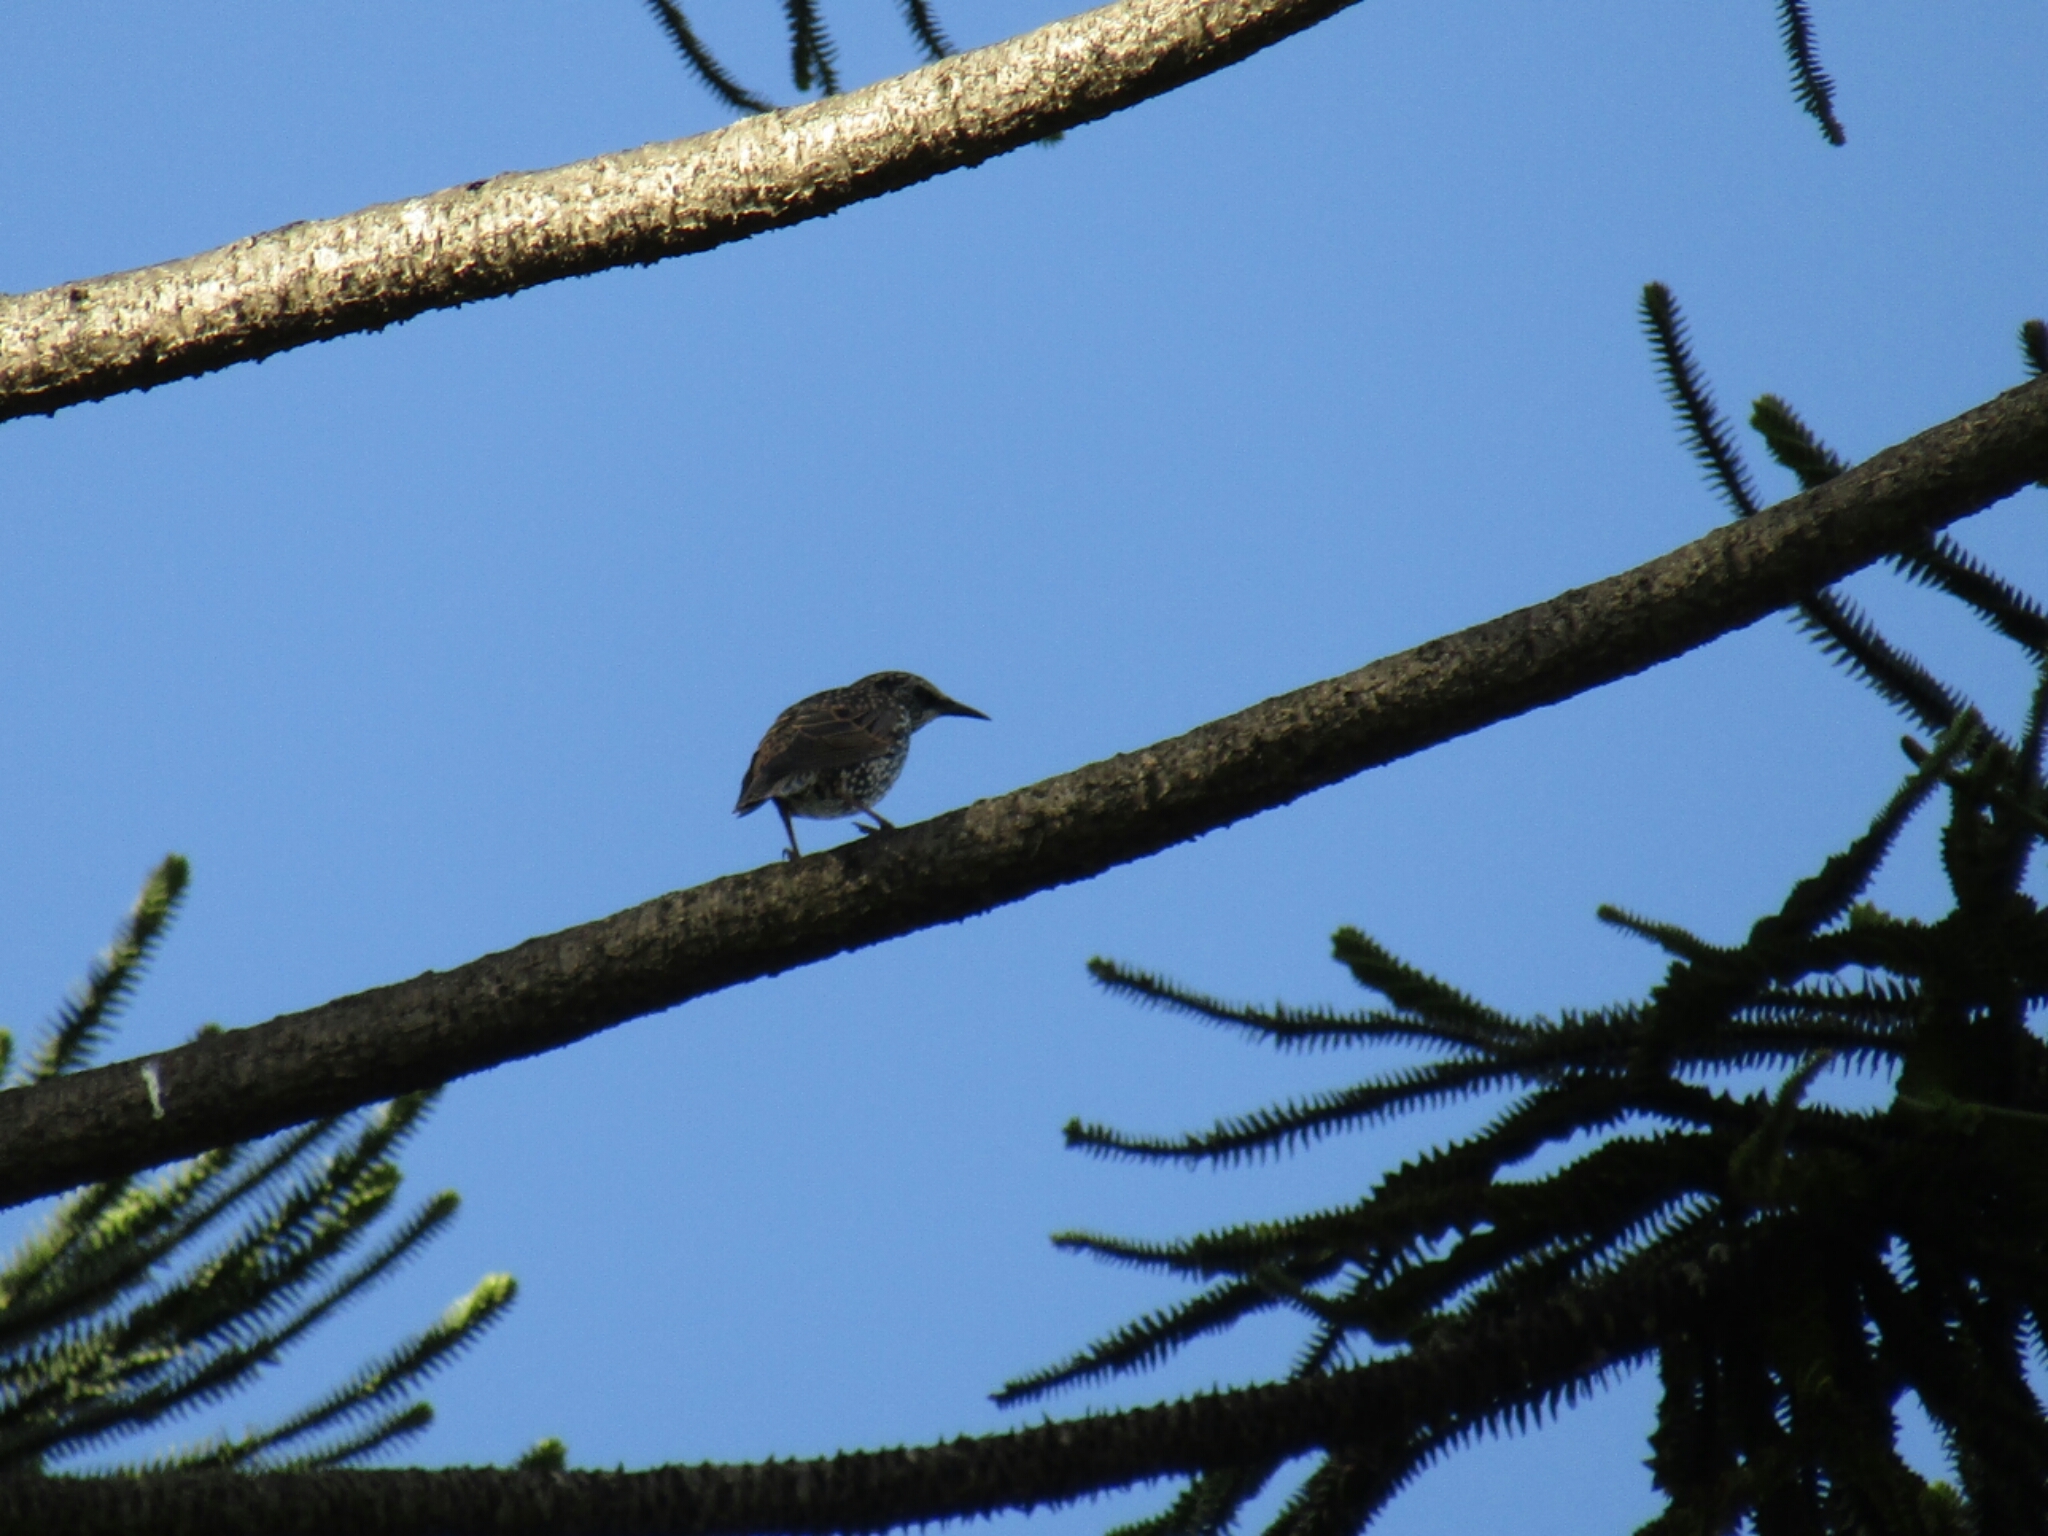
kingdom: Animalia
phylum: Chordata
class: Aves
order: Passeriformes
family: Sturnidae
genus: Sturnus
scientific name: Sturnus vulgaris
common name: Common starling
